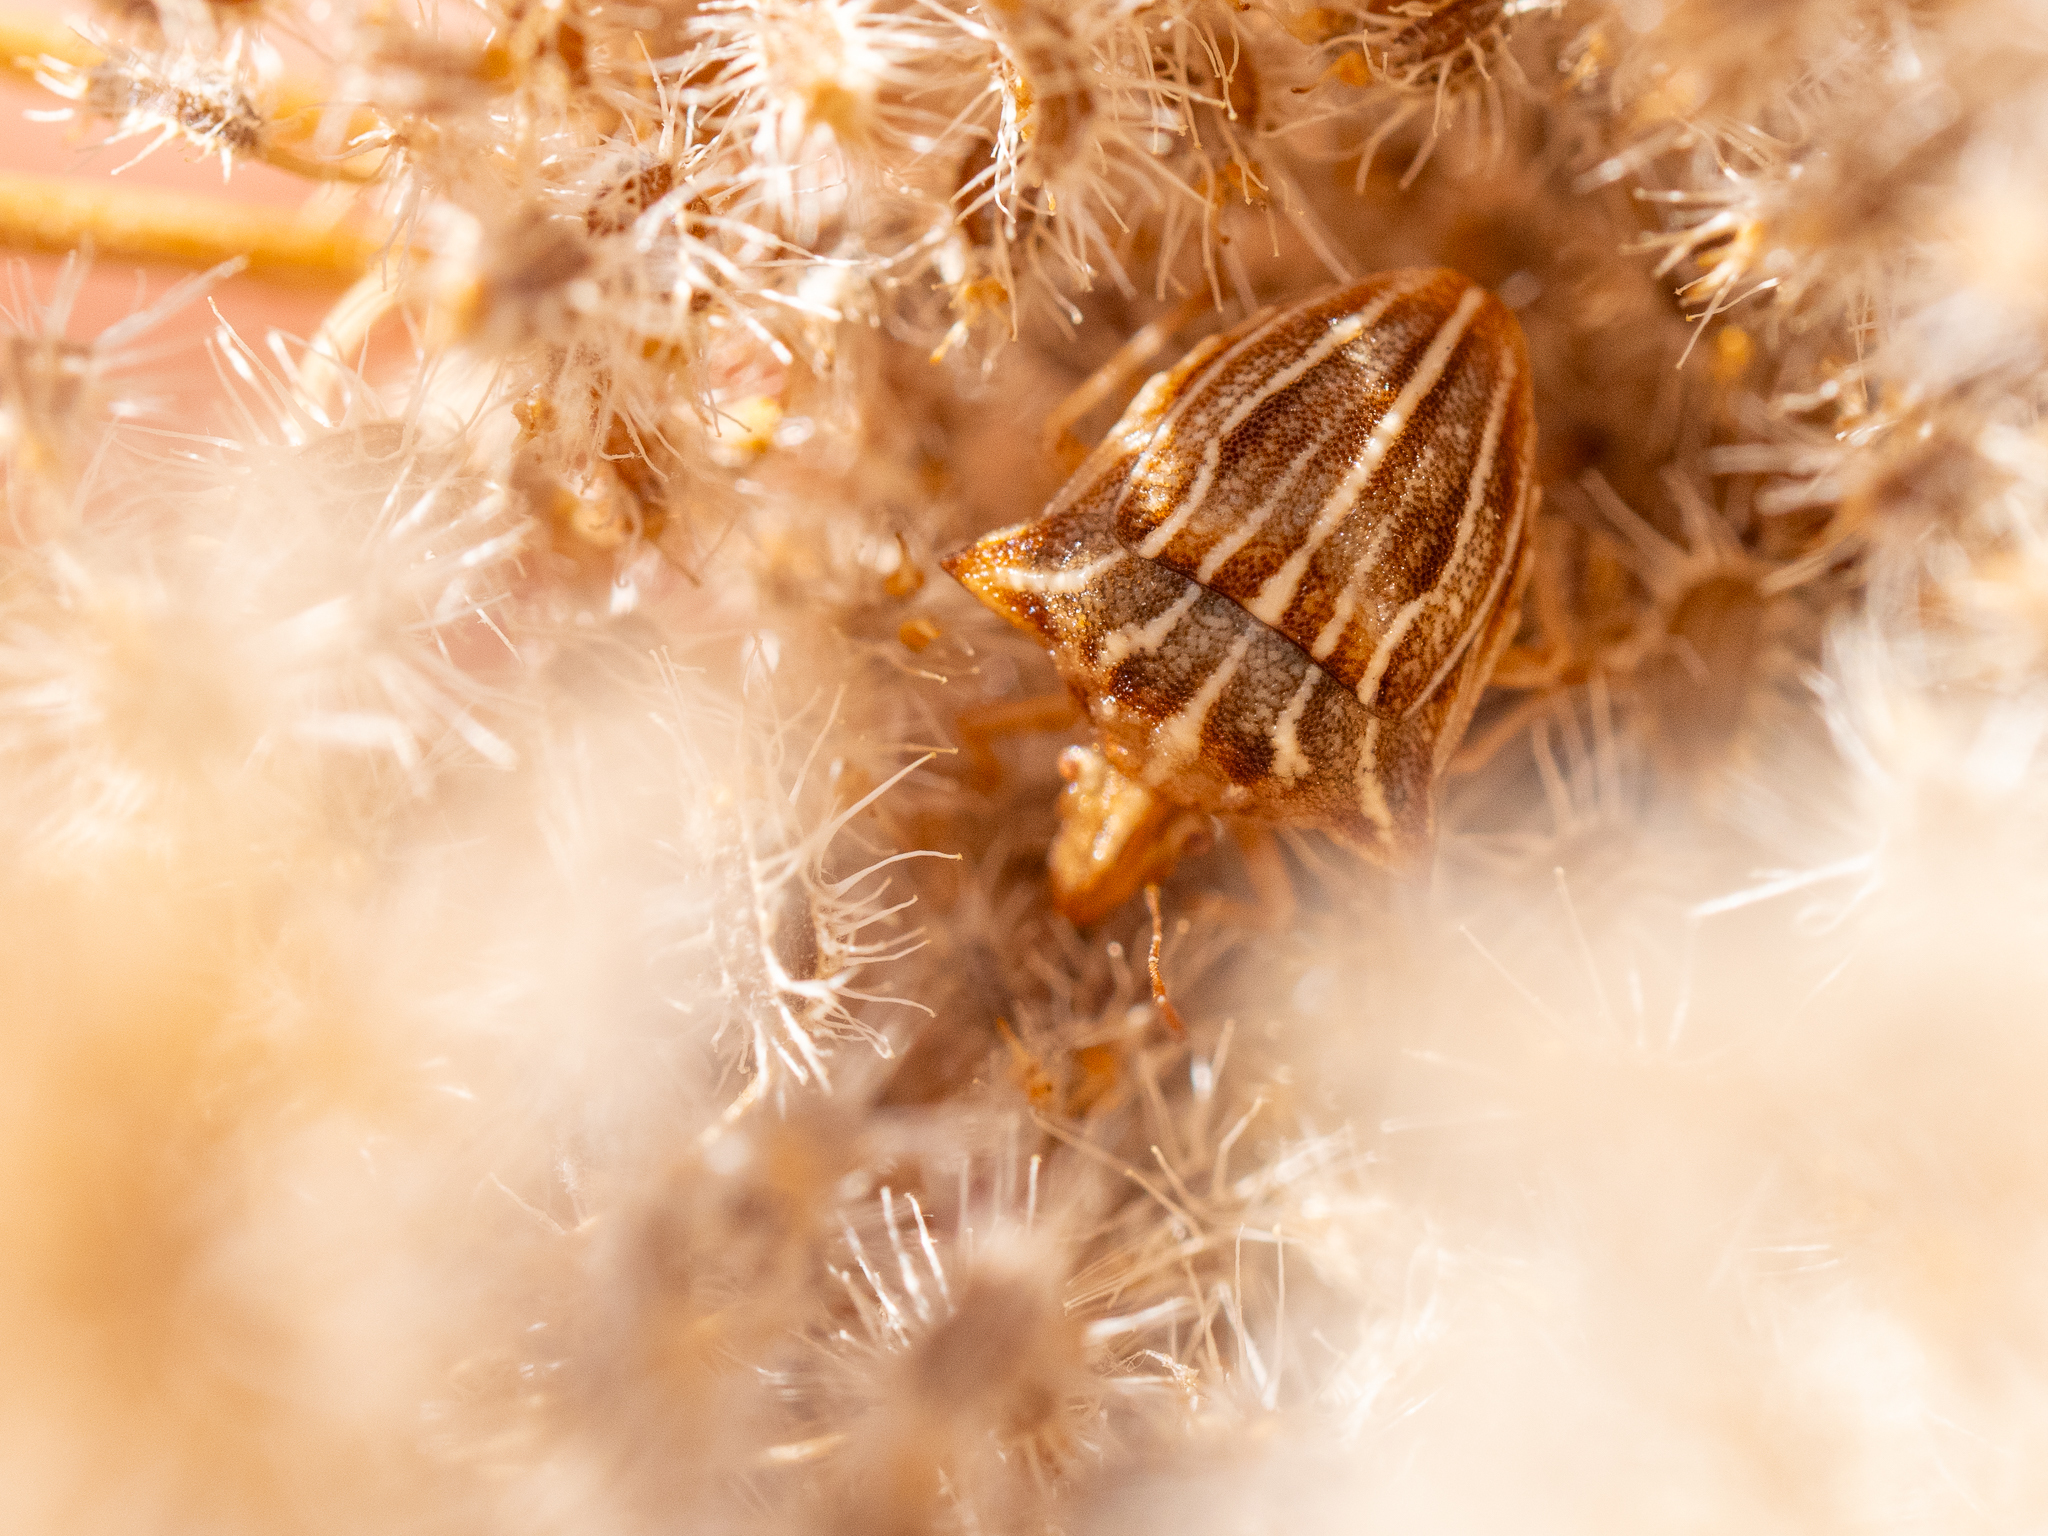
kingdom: Animalia
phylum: Arthropoda
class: Insecta
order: Hemiptera
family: Pentatomidae
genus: Ancyrosoma
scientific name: Ancyrosoma leucogrammes
